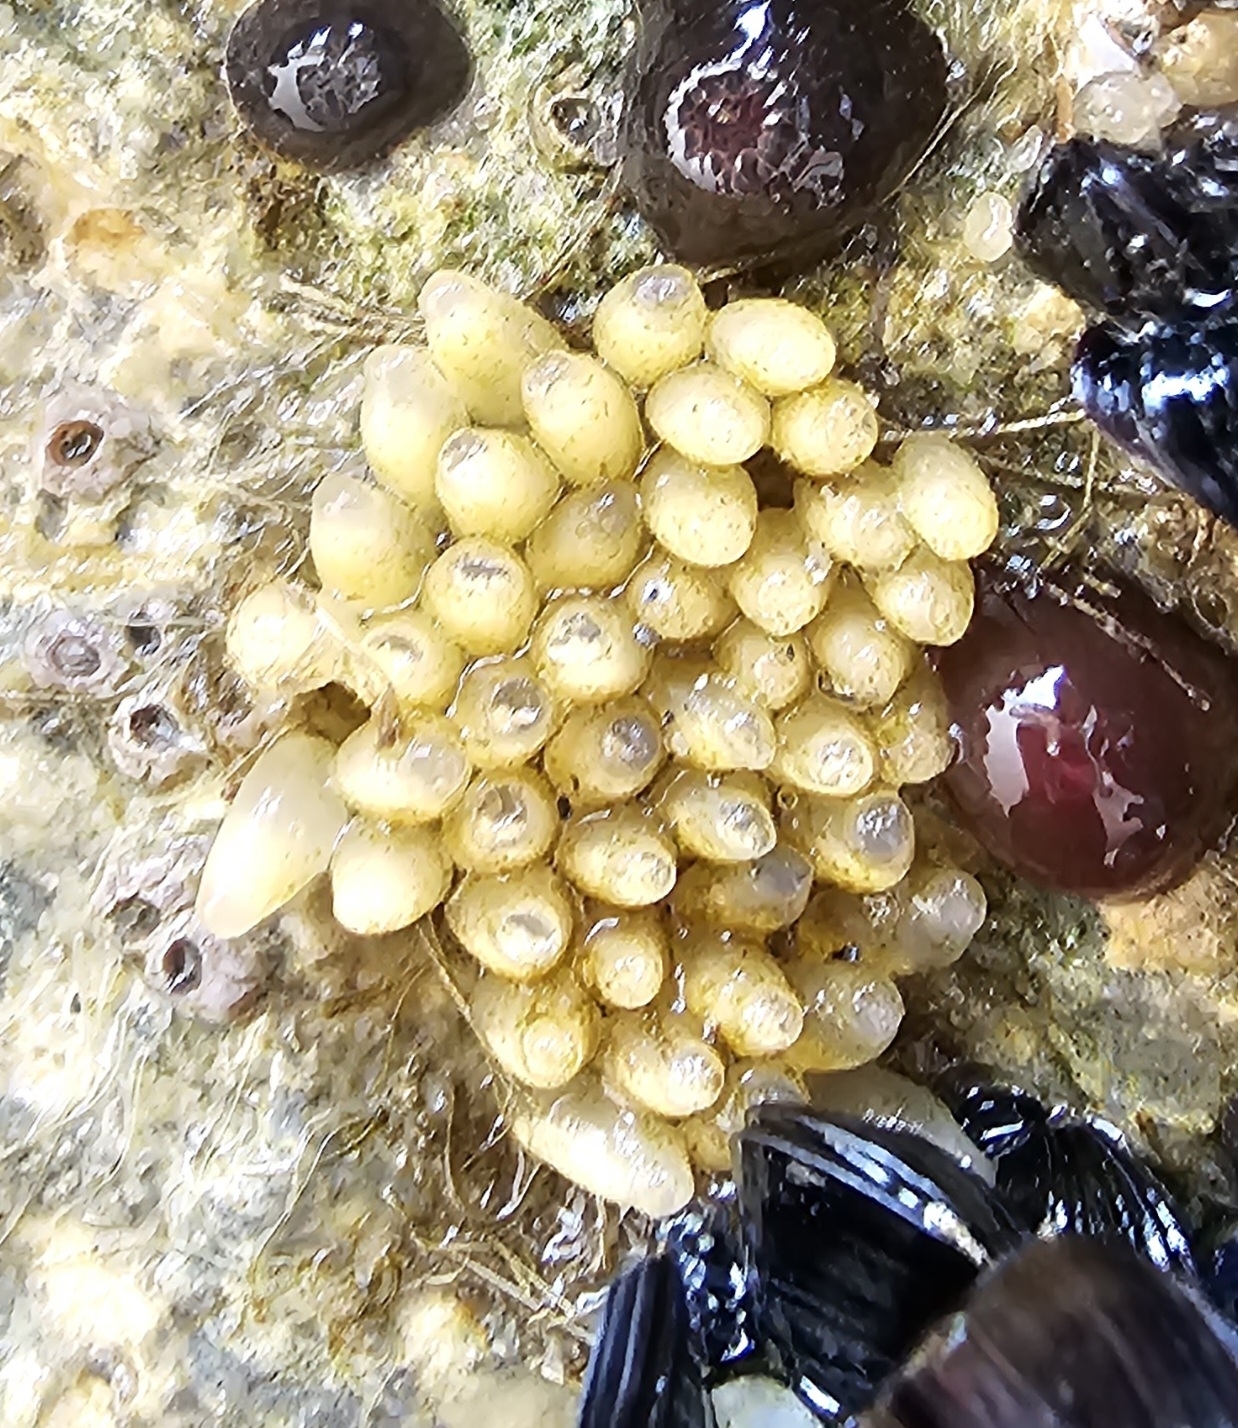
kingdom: Animalia
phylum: Mollusca
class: Gastropoda
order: Neogastropoda
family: Muricidae
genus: Nucella
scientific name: Nucella lapillus
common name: Dog whelk
